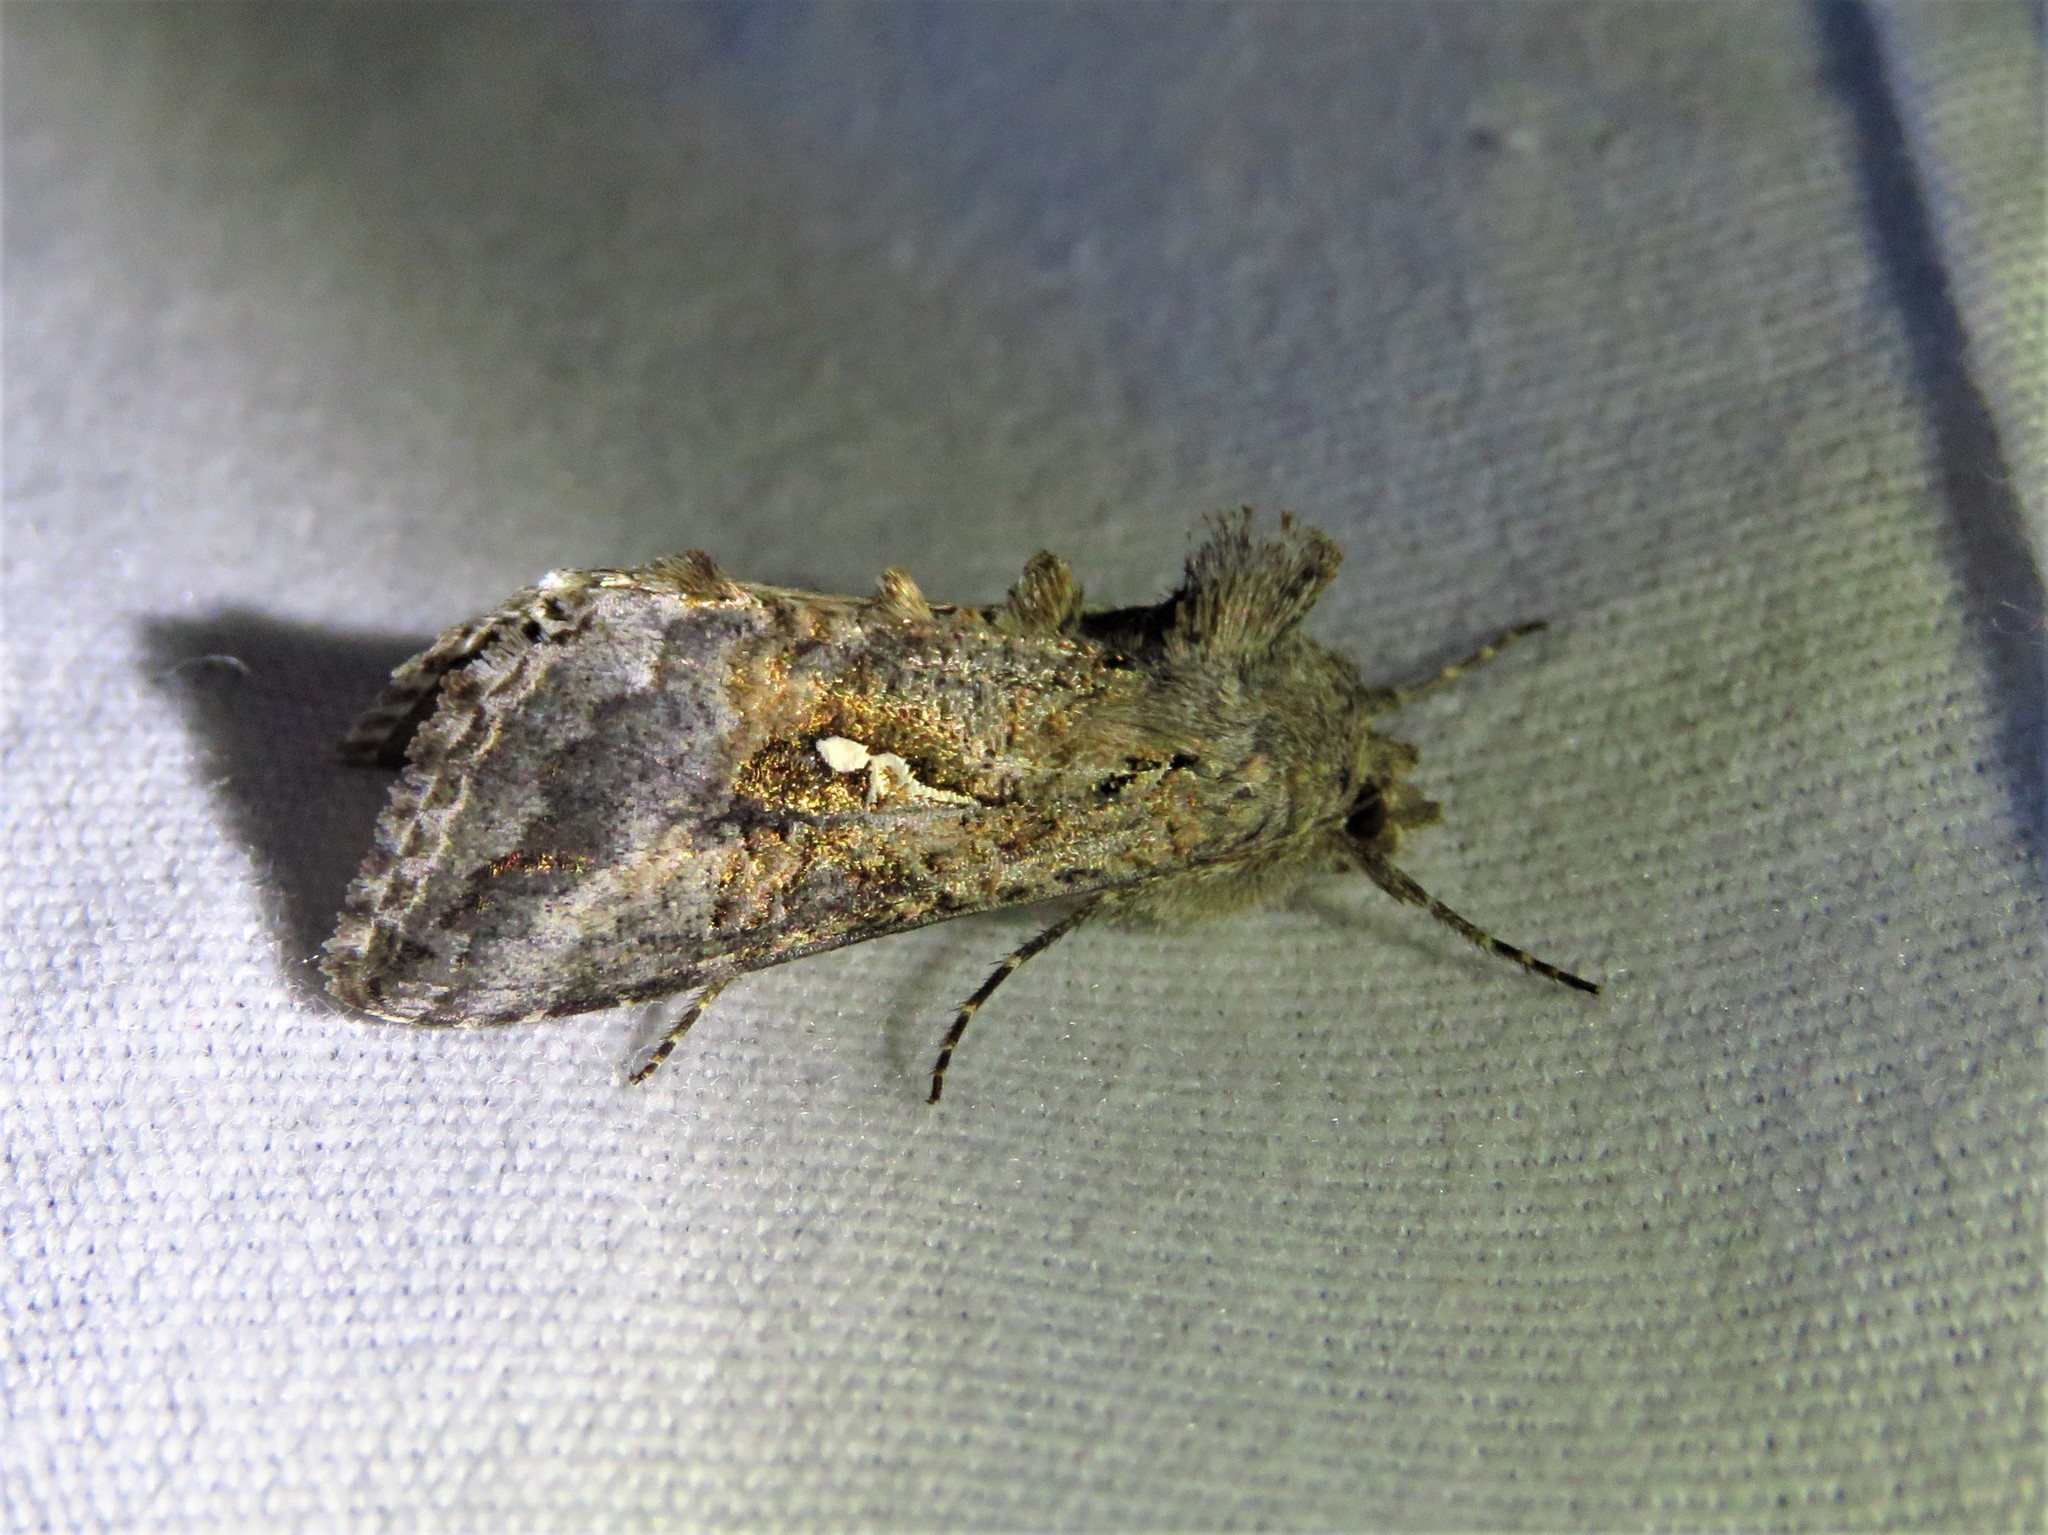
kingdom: Animalia
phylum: Arthropoda
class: Insecta
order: Lepidoptera
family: Noctuidae
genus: Rachiplusia
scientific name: Rachiplusia ou
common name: Gray looper moth
